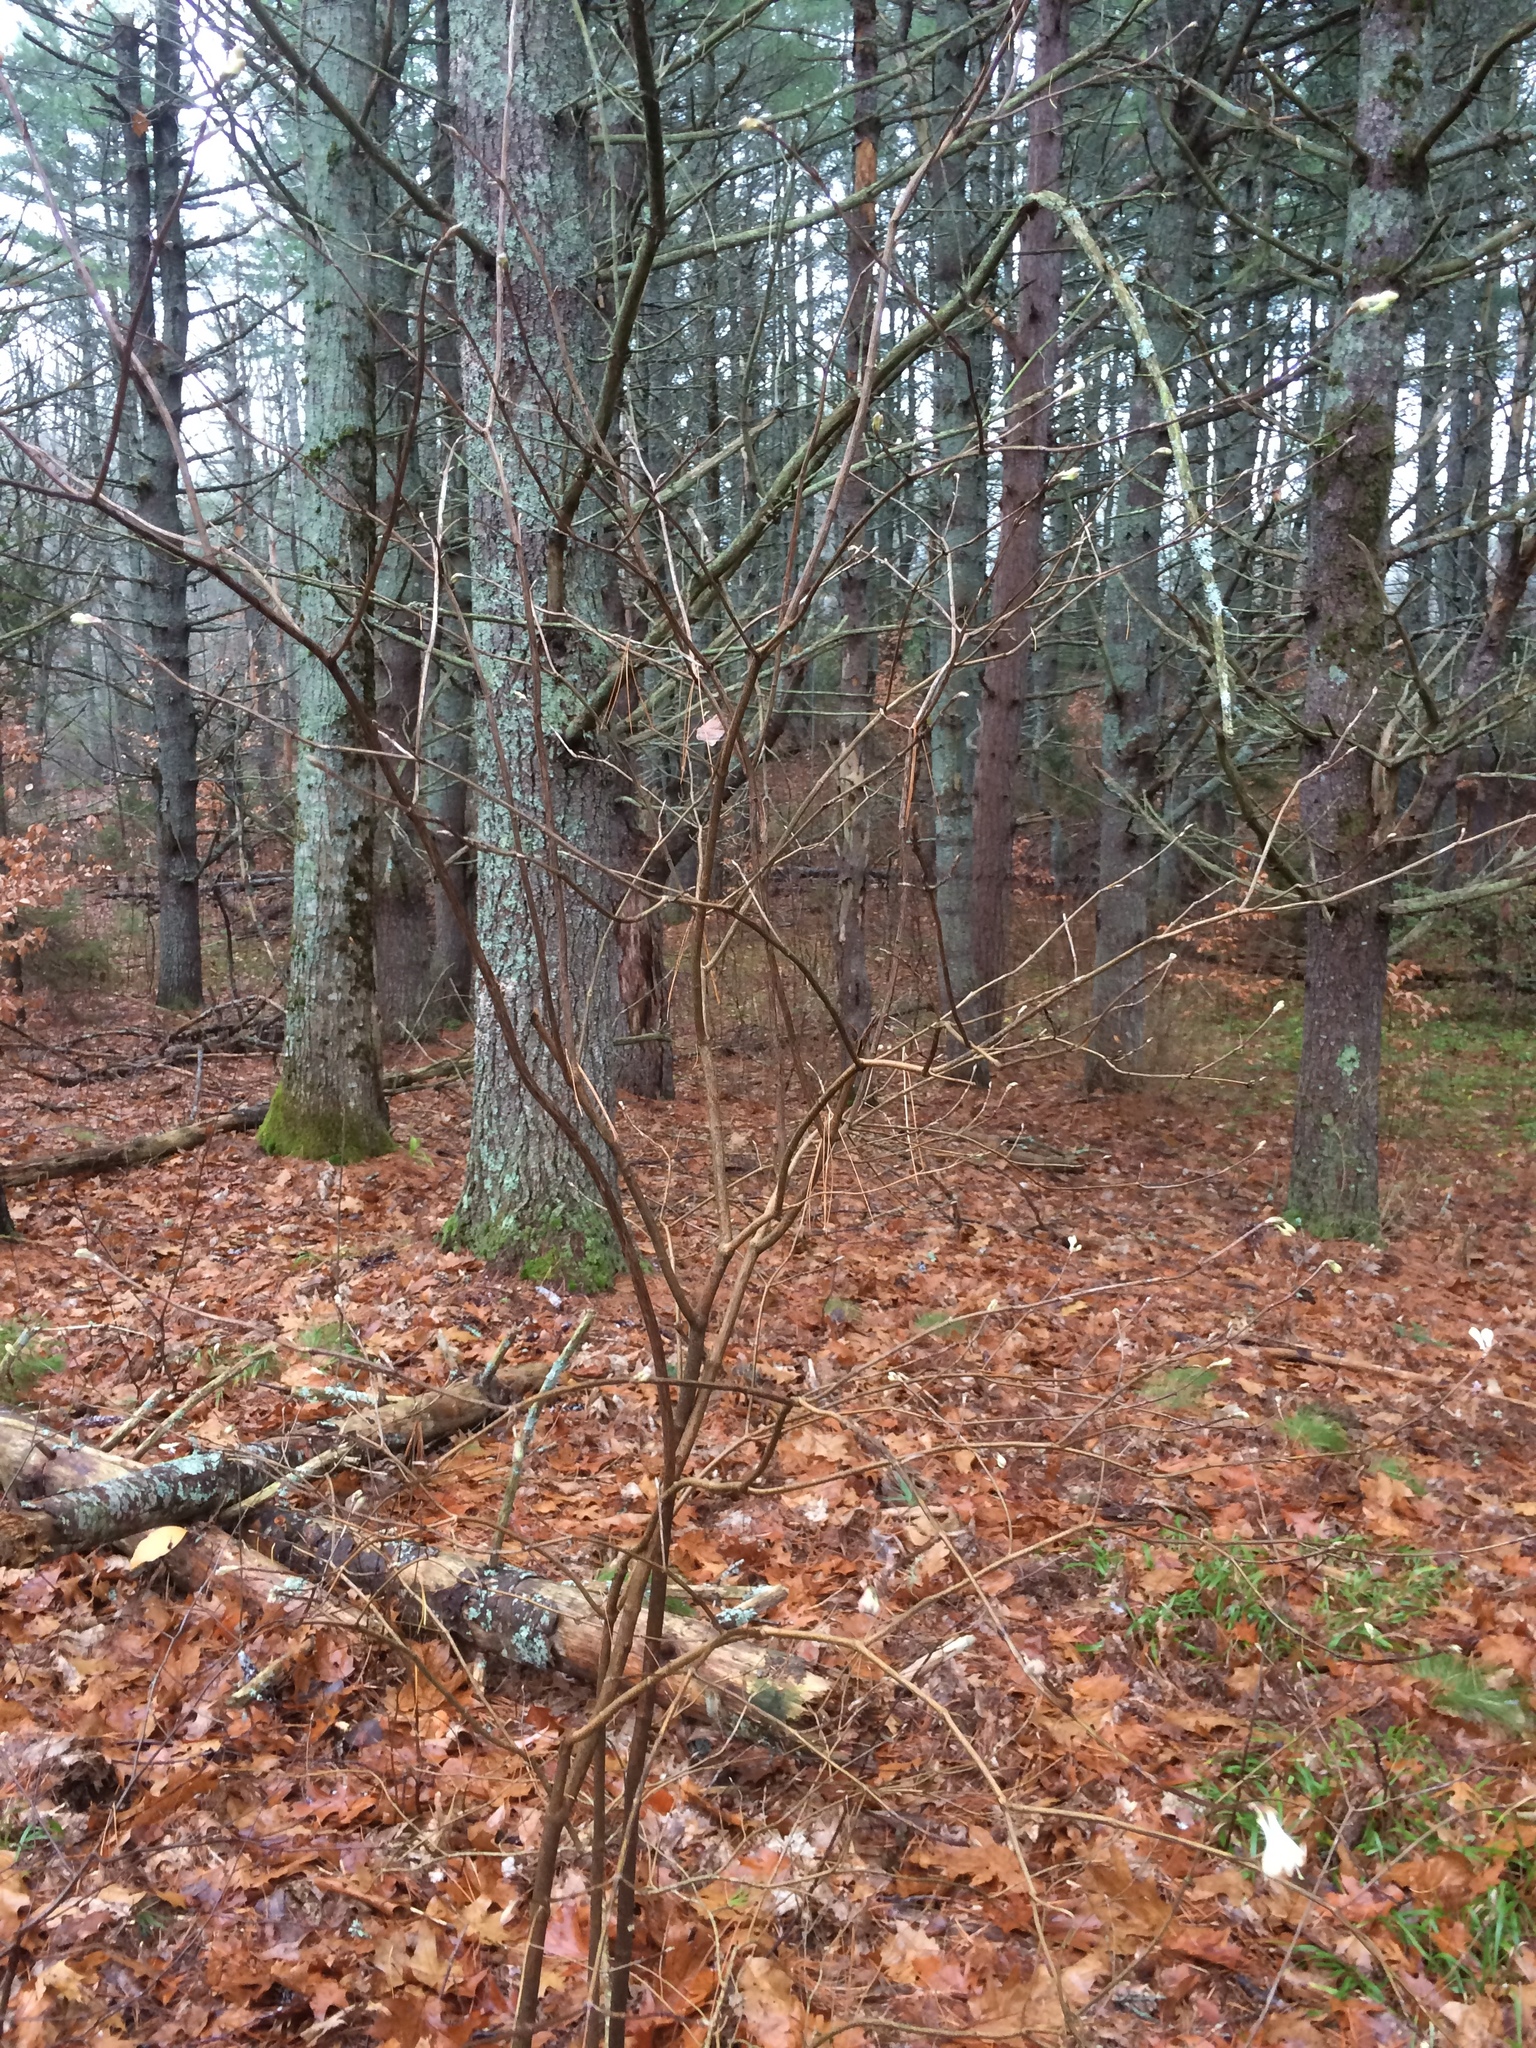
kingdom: Plantae
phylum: Tracheophyta
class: Magnoliopsida
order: Dipsacales
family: Caprifoliaceae
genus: Lonicera
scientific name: Lonicera canadensis
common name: American fly-honeysuckle
